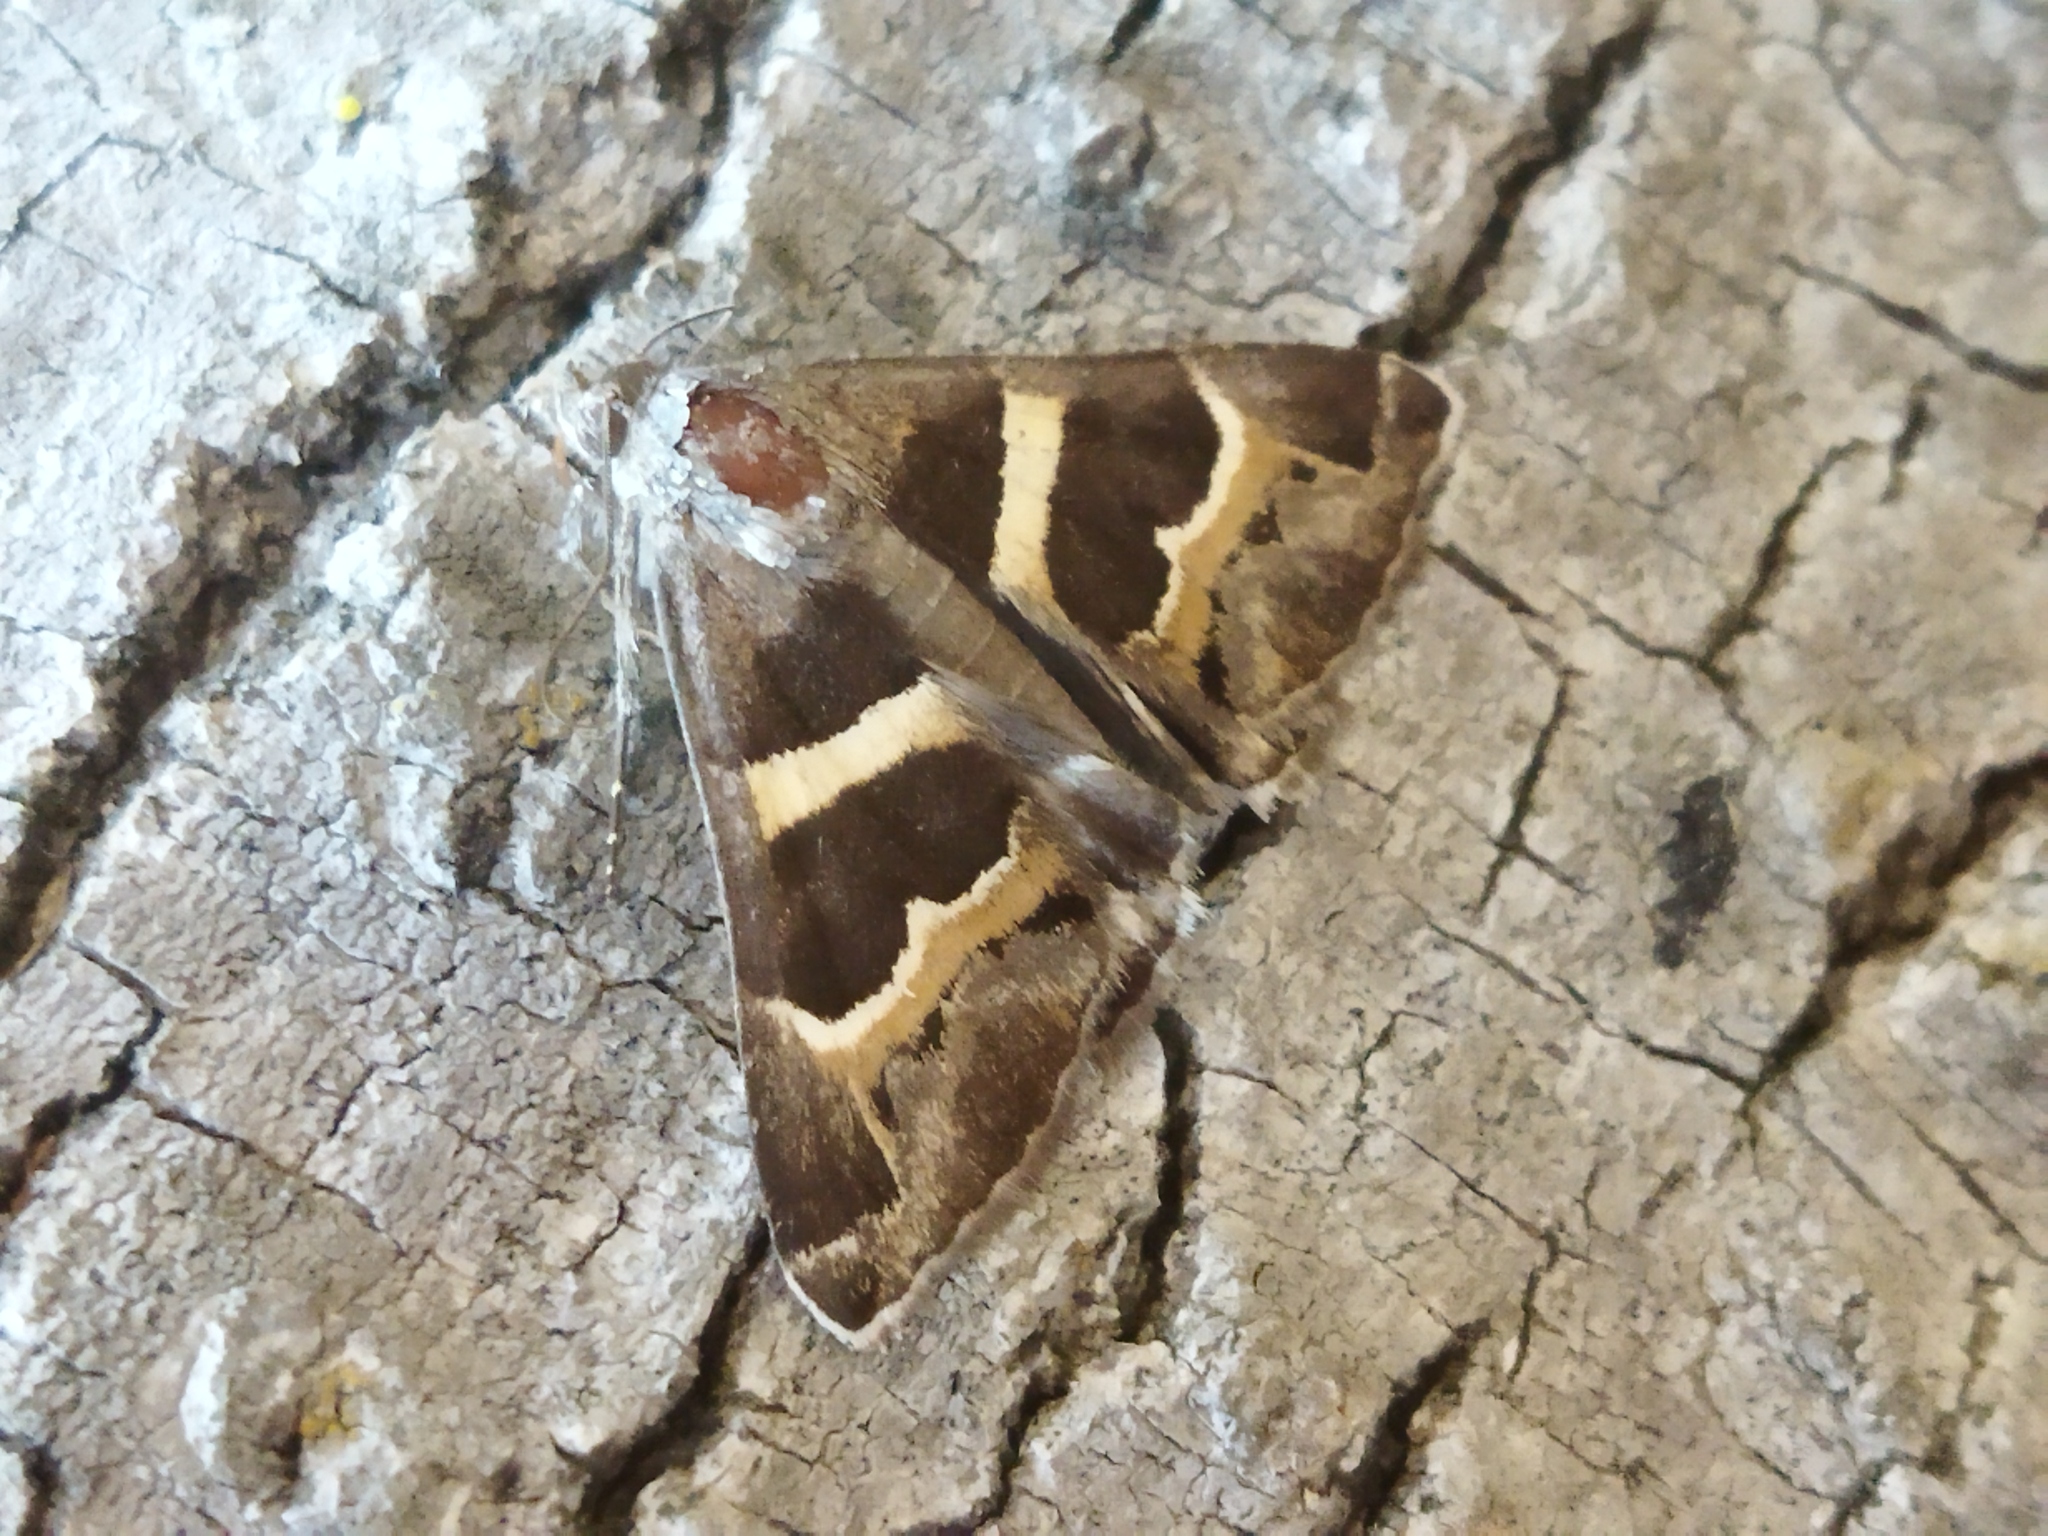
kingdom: Animalia
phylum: Arthropoda
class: Insecta
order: Lepidoptera
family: Erebidae
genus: Grammodes
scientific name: Grammodes stolida
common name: Geometrician
